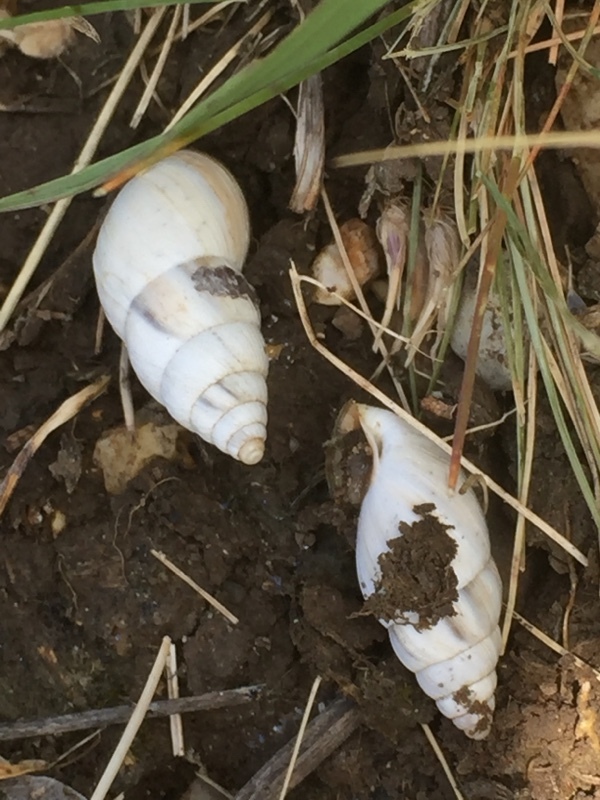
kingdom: Animalia
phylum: Mollusca
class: Gastropoda
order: Stylommatophora
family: Enidae
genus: Georginapaeus
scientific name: Georginapaeus hohenackeri
